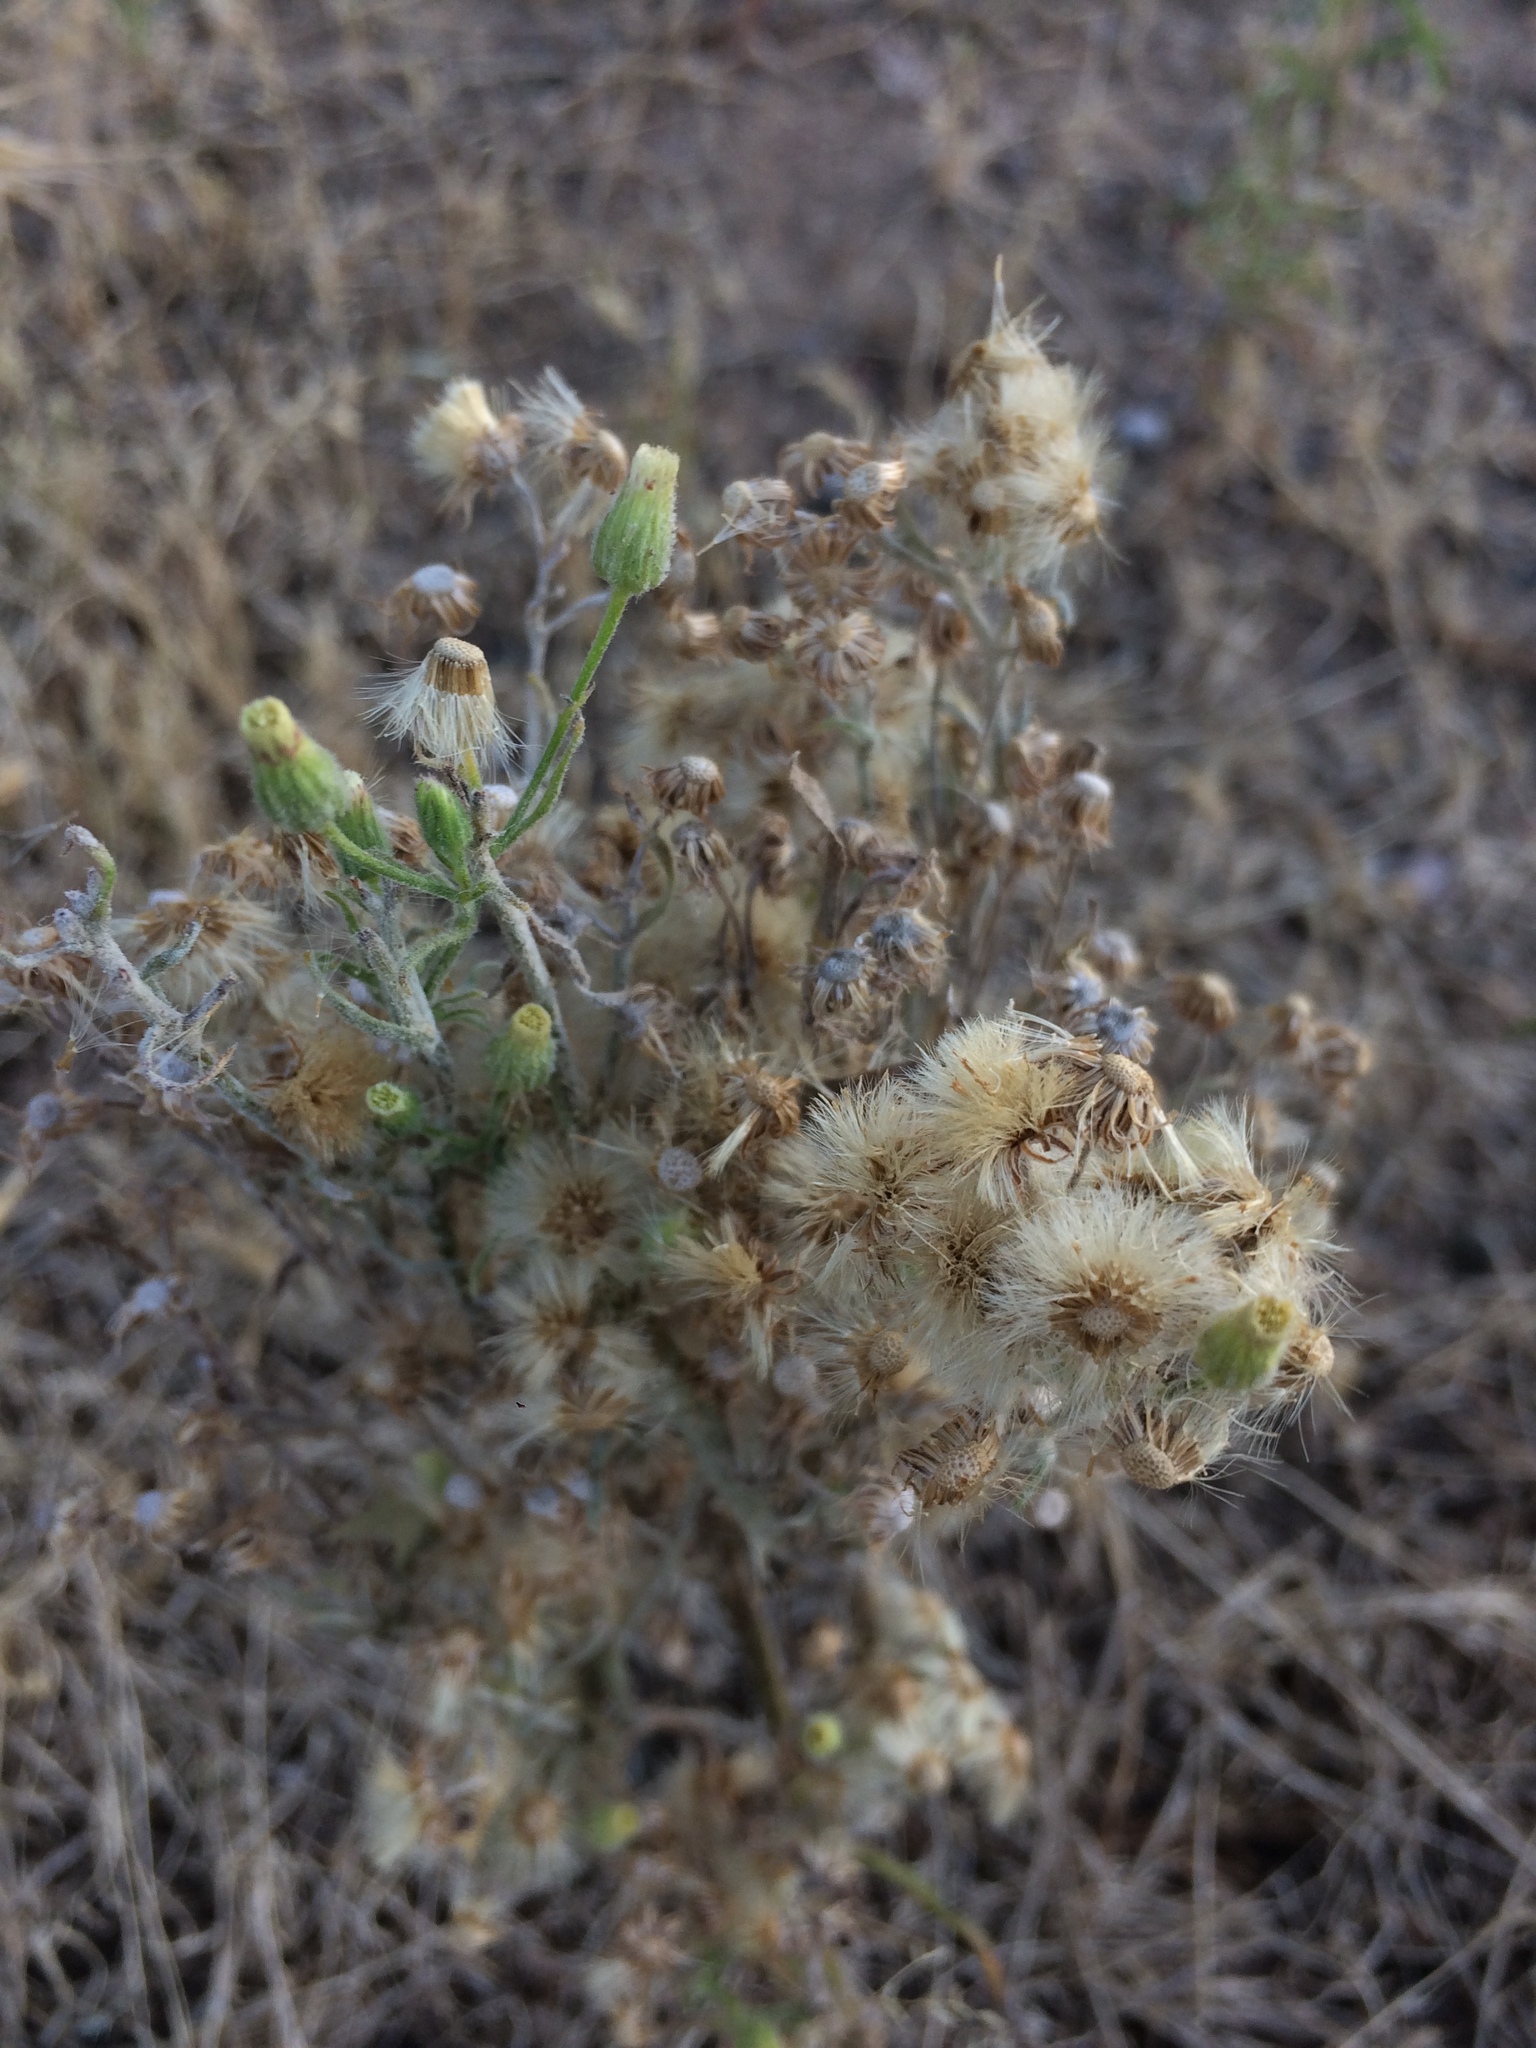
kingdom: Plantae
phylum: Tracheophyta
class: Magnoliopsida
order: Asterales
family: Asteraceae
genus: Erigeron
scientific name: Erigeron bonariensis
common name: Argentine fleabane
